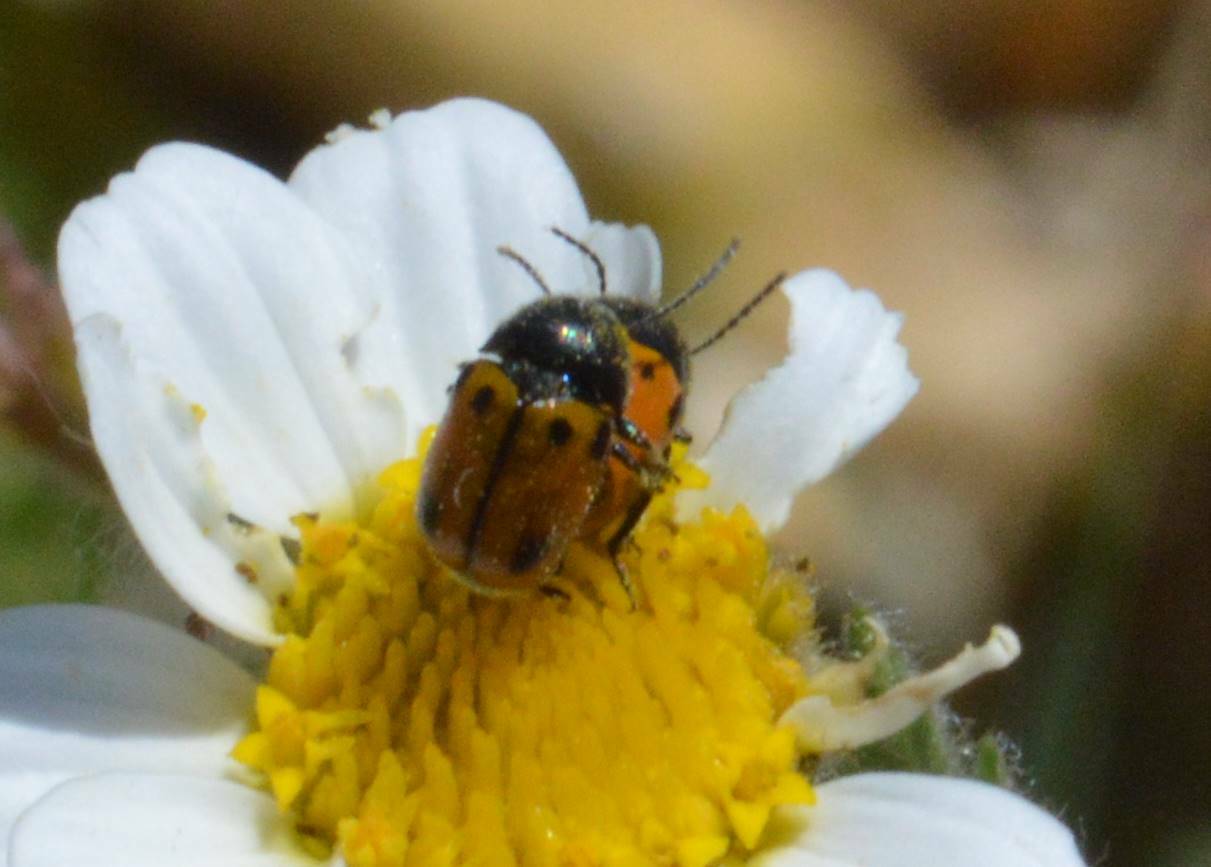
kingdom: Animalia
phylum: Arthropoda
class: Insecta
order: Coleoptera
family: Chrysomelidae
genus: Cryptocephalus
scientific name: Cryptocephalus rugicollis
